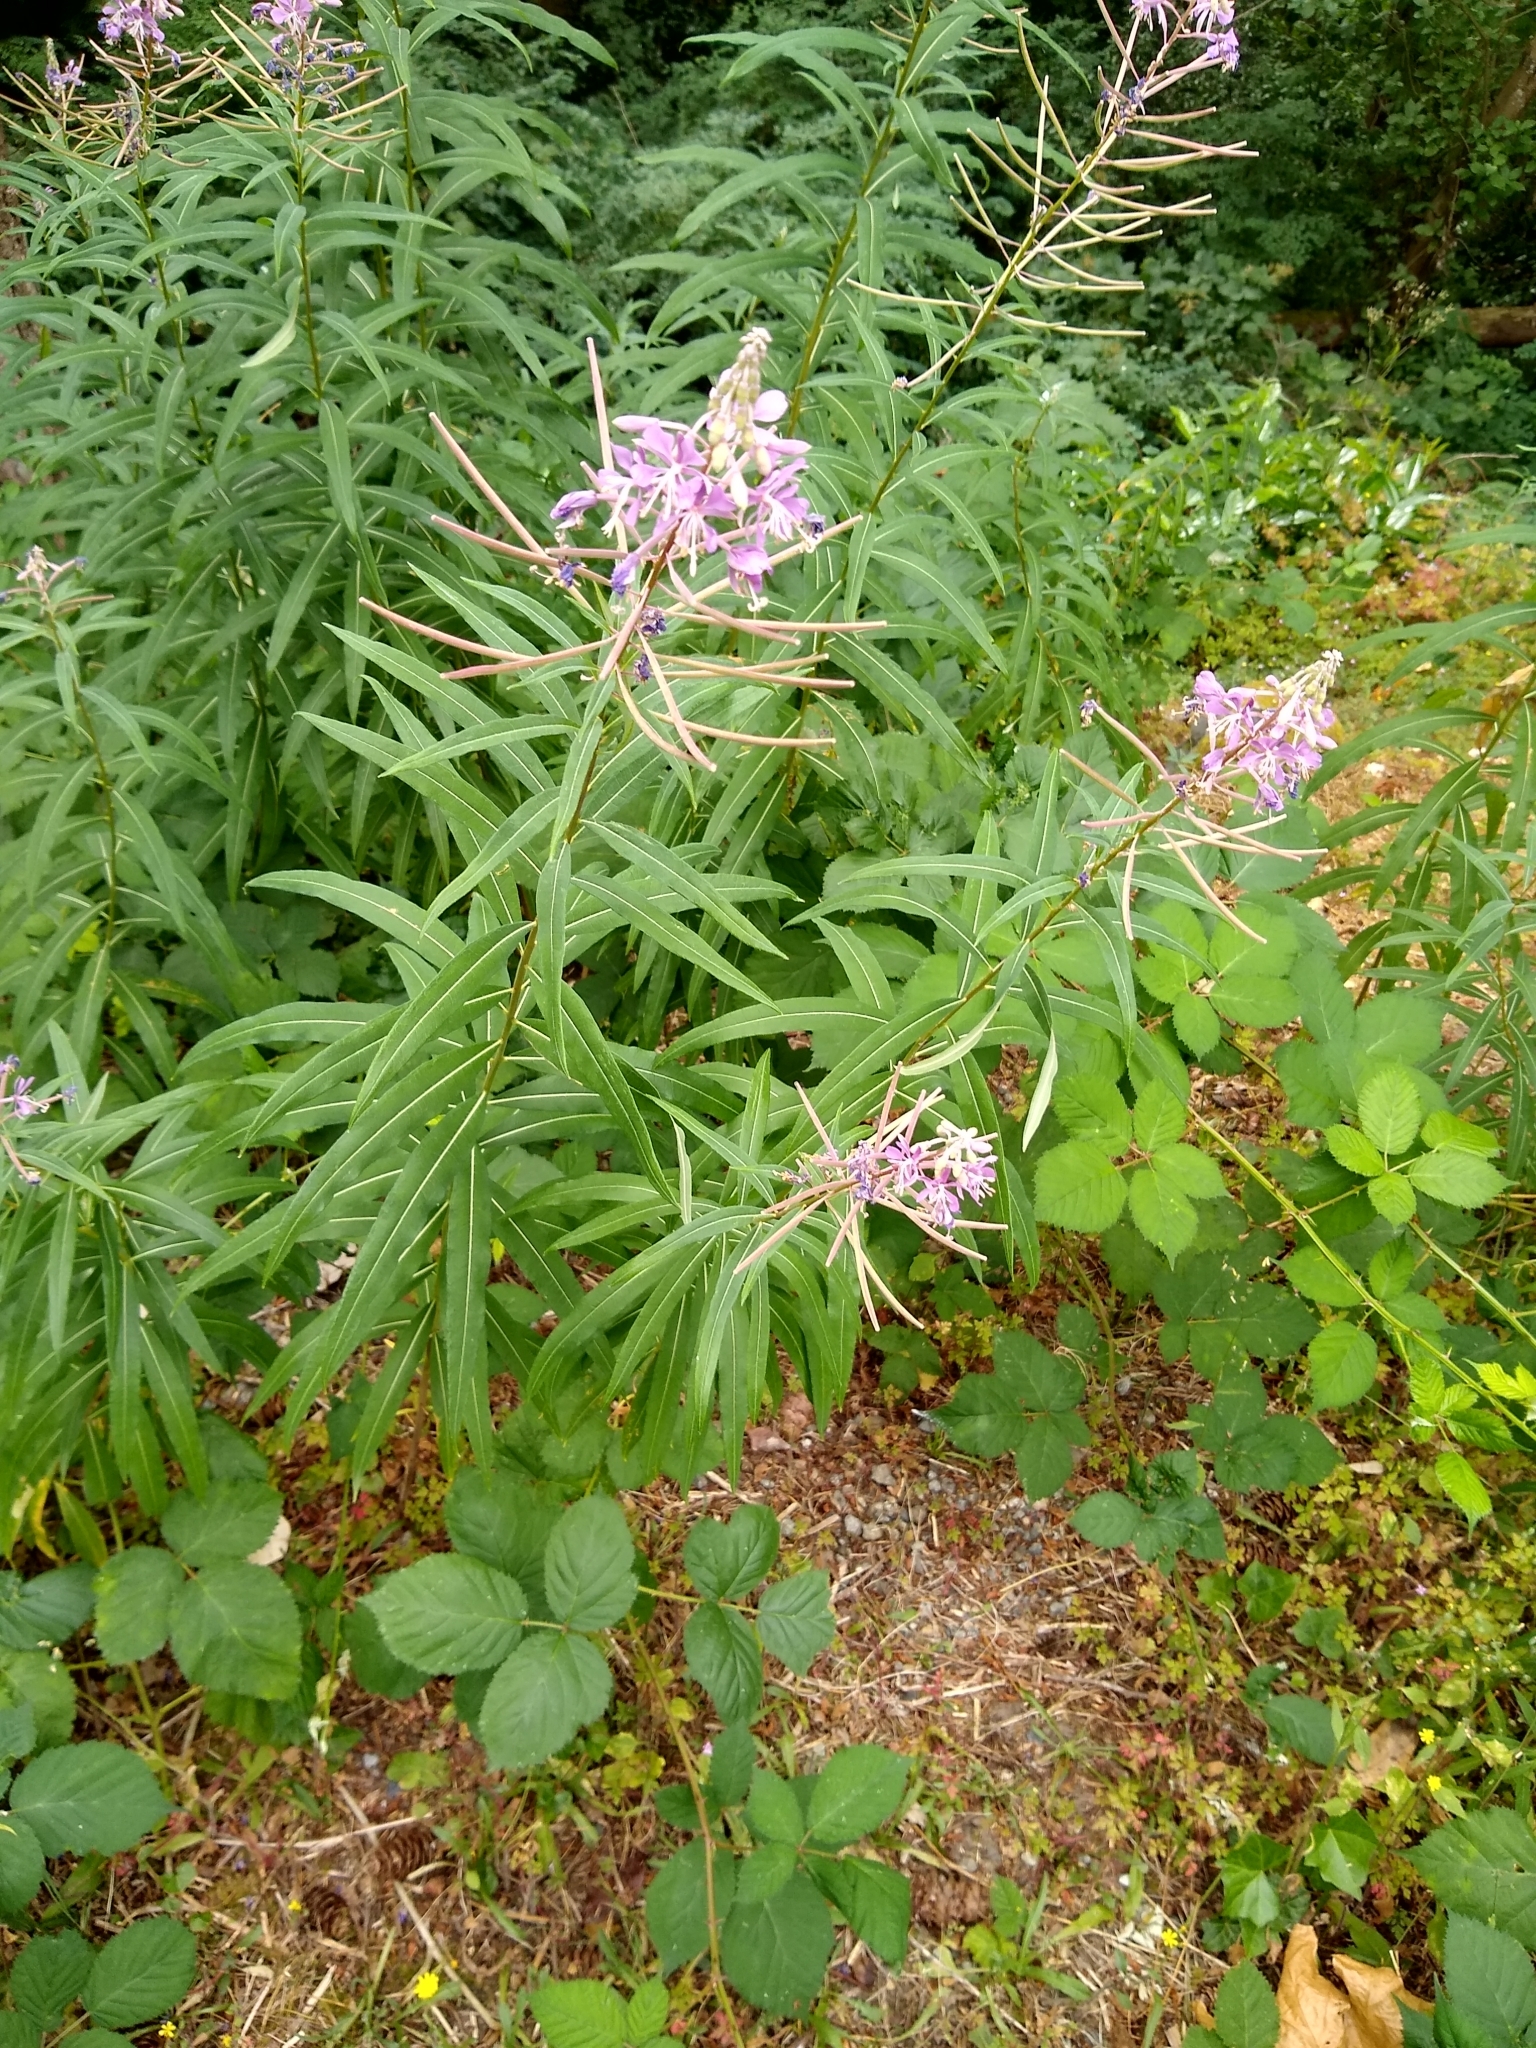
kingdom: Plantae
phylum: Tracheophyta
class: Magnoliopsida
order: Myrtales
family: Onagraceae
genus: Chamaenerion
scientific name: Chamaenerion angustifolium
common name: Fireweed
